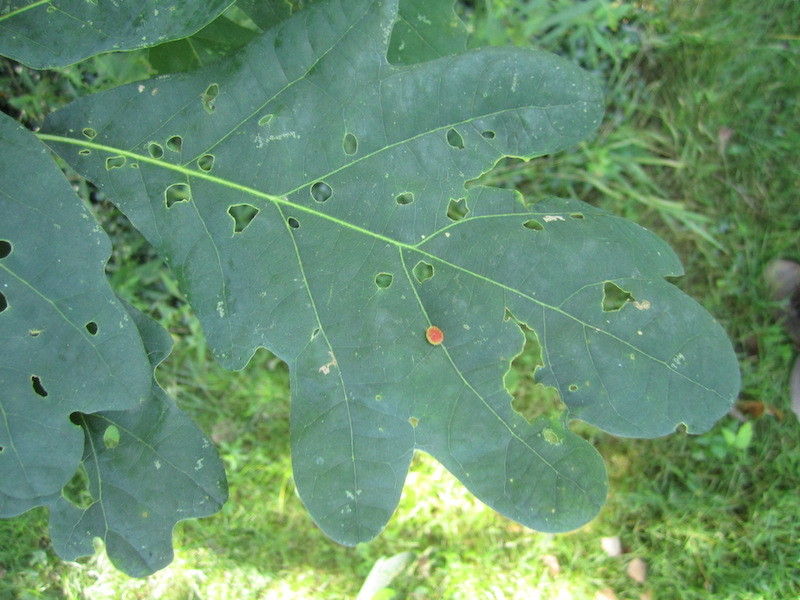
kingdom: Animalia
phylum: Arthropoda
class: Insecta
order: Hymenoptera
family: Cynipidae
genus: Acraspis
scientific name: Acraspis
